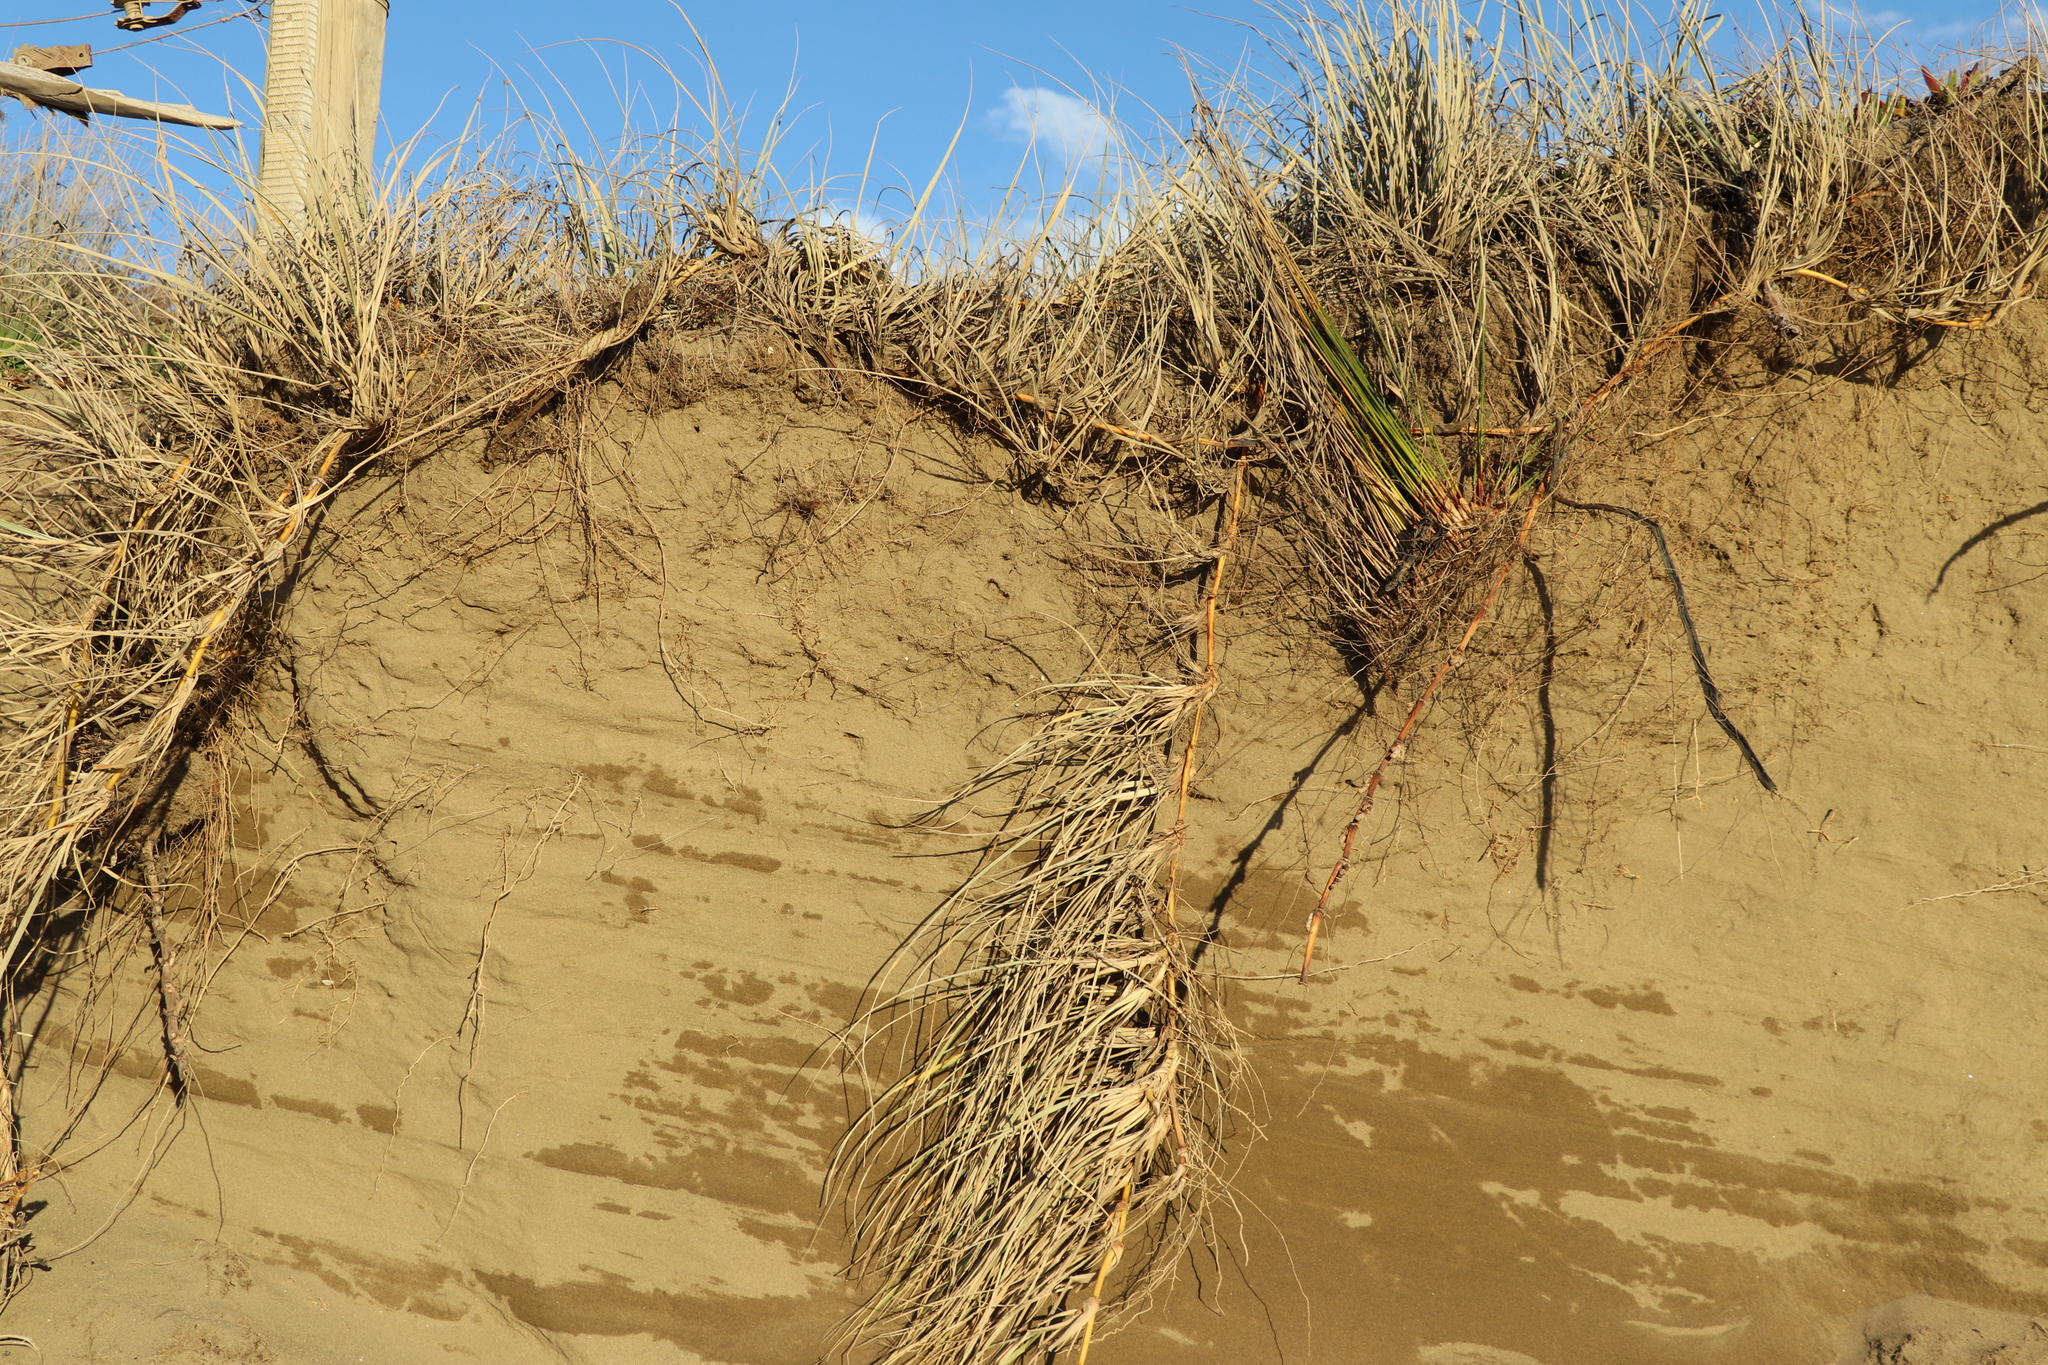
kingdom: Plantae
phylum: Tracheophyta
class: Liliopsida
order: Poales
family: Poaceae
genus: Calamagrostis
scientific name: Calamagrostis arenaria
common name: European beachgrass
